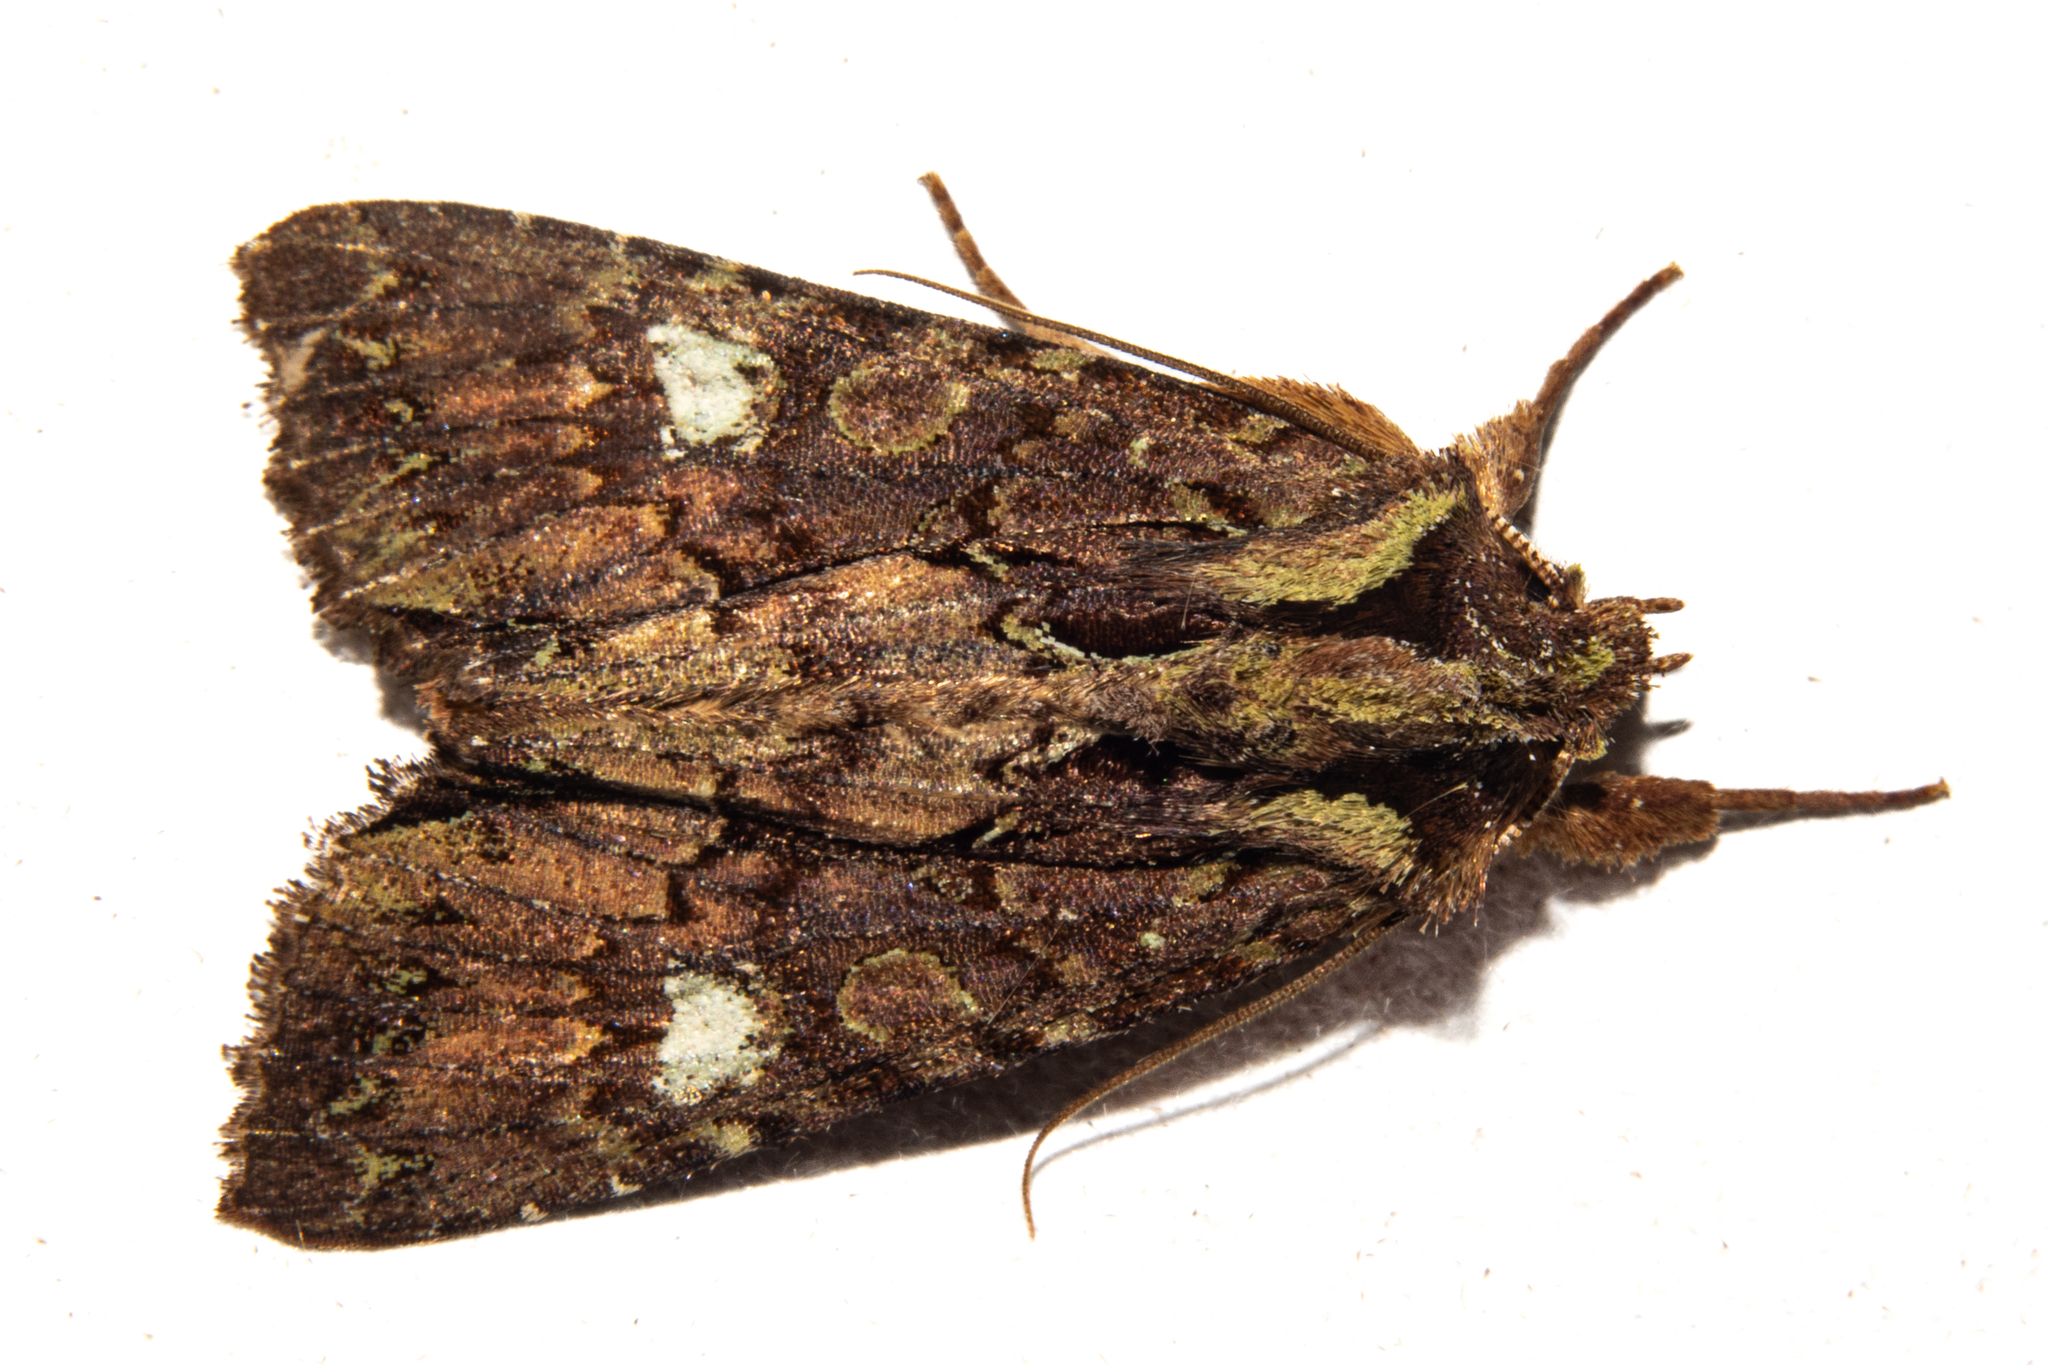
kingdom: Animalia
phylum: Arthropoda
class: Insecta
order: Lepidoptera
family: Noctuidae
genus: Meterana
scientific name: Meterana diatmeta
